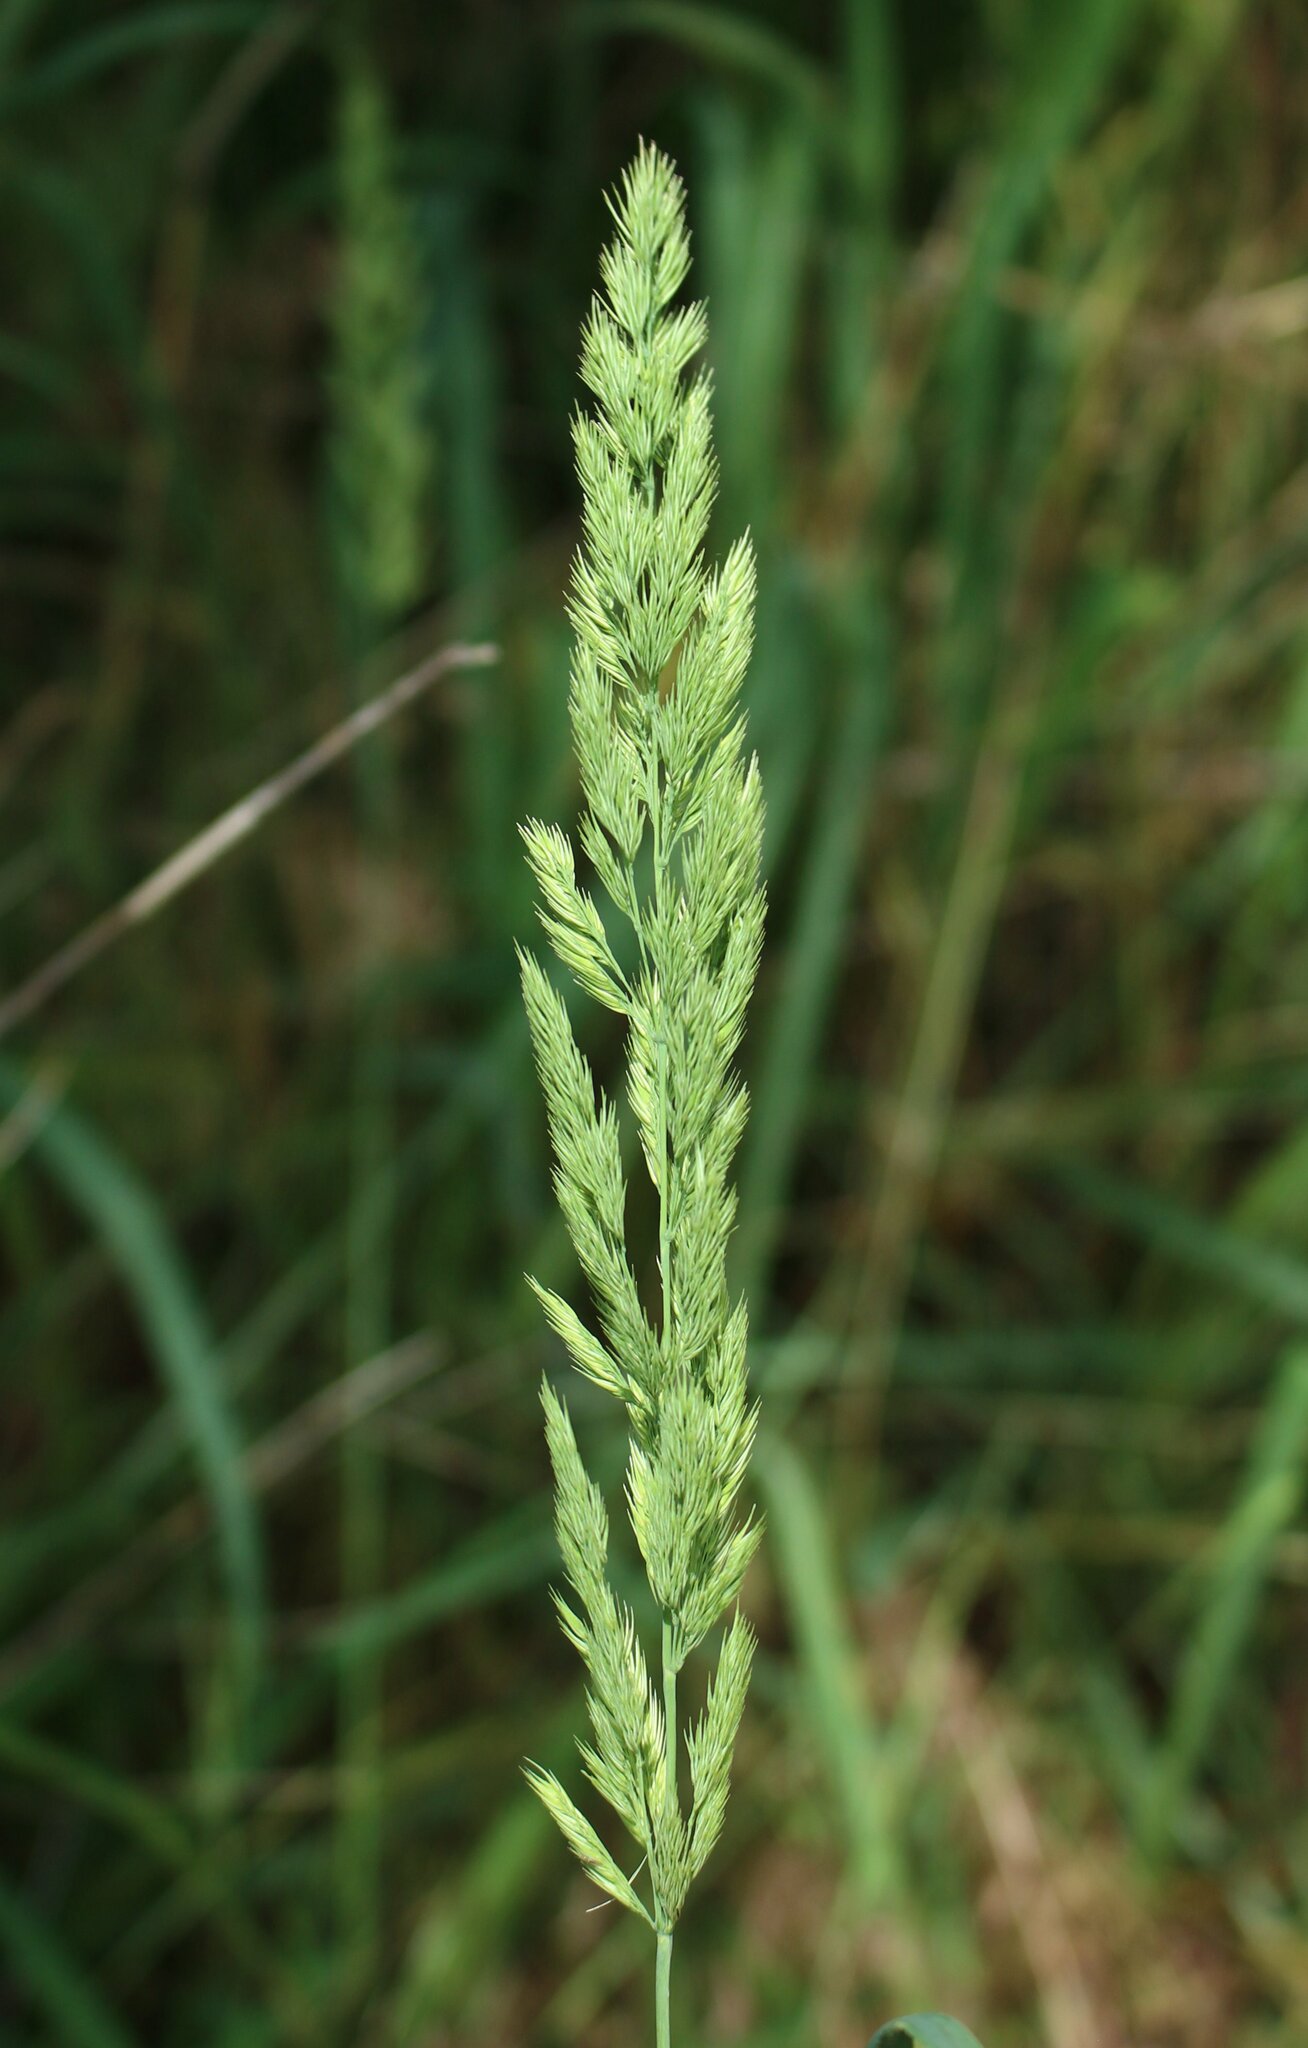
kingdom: Plantae
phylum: Tracheophyta
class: Liliopsida
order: Poales
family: Poaceae
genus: Calamagrostis
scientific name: Calamagrostis epigejos
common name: Wood small-reed
